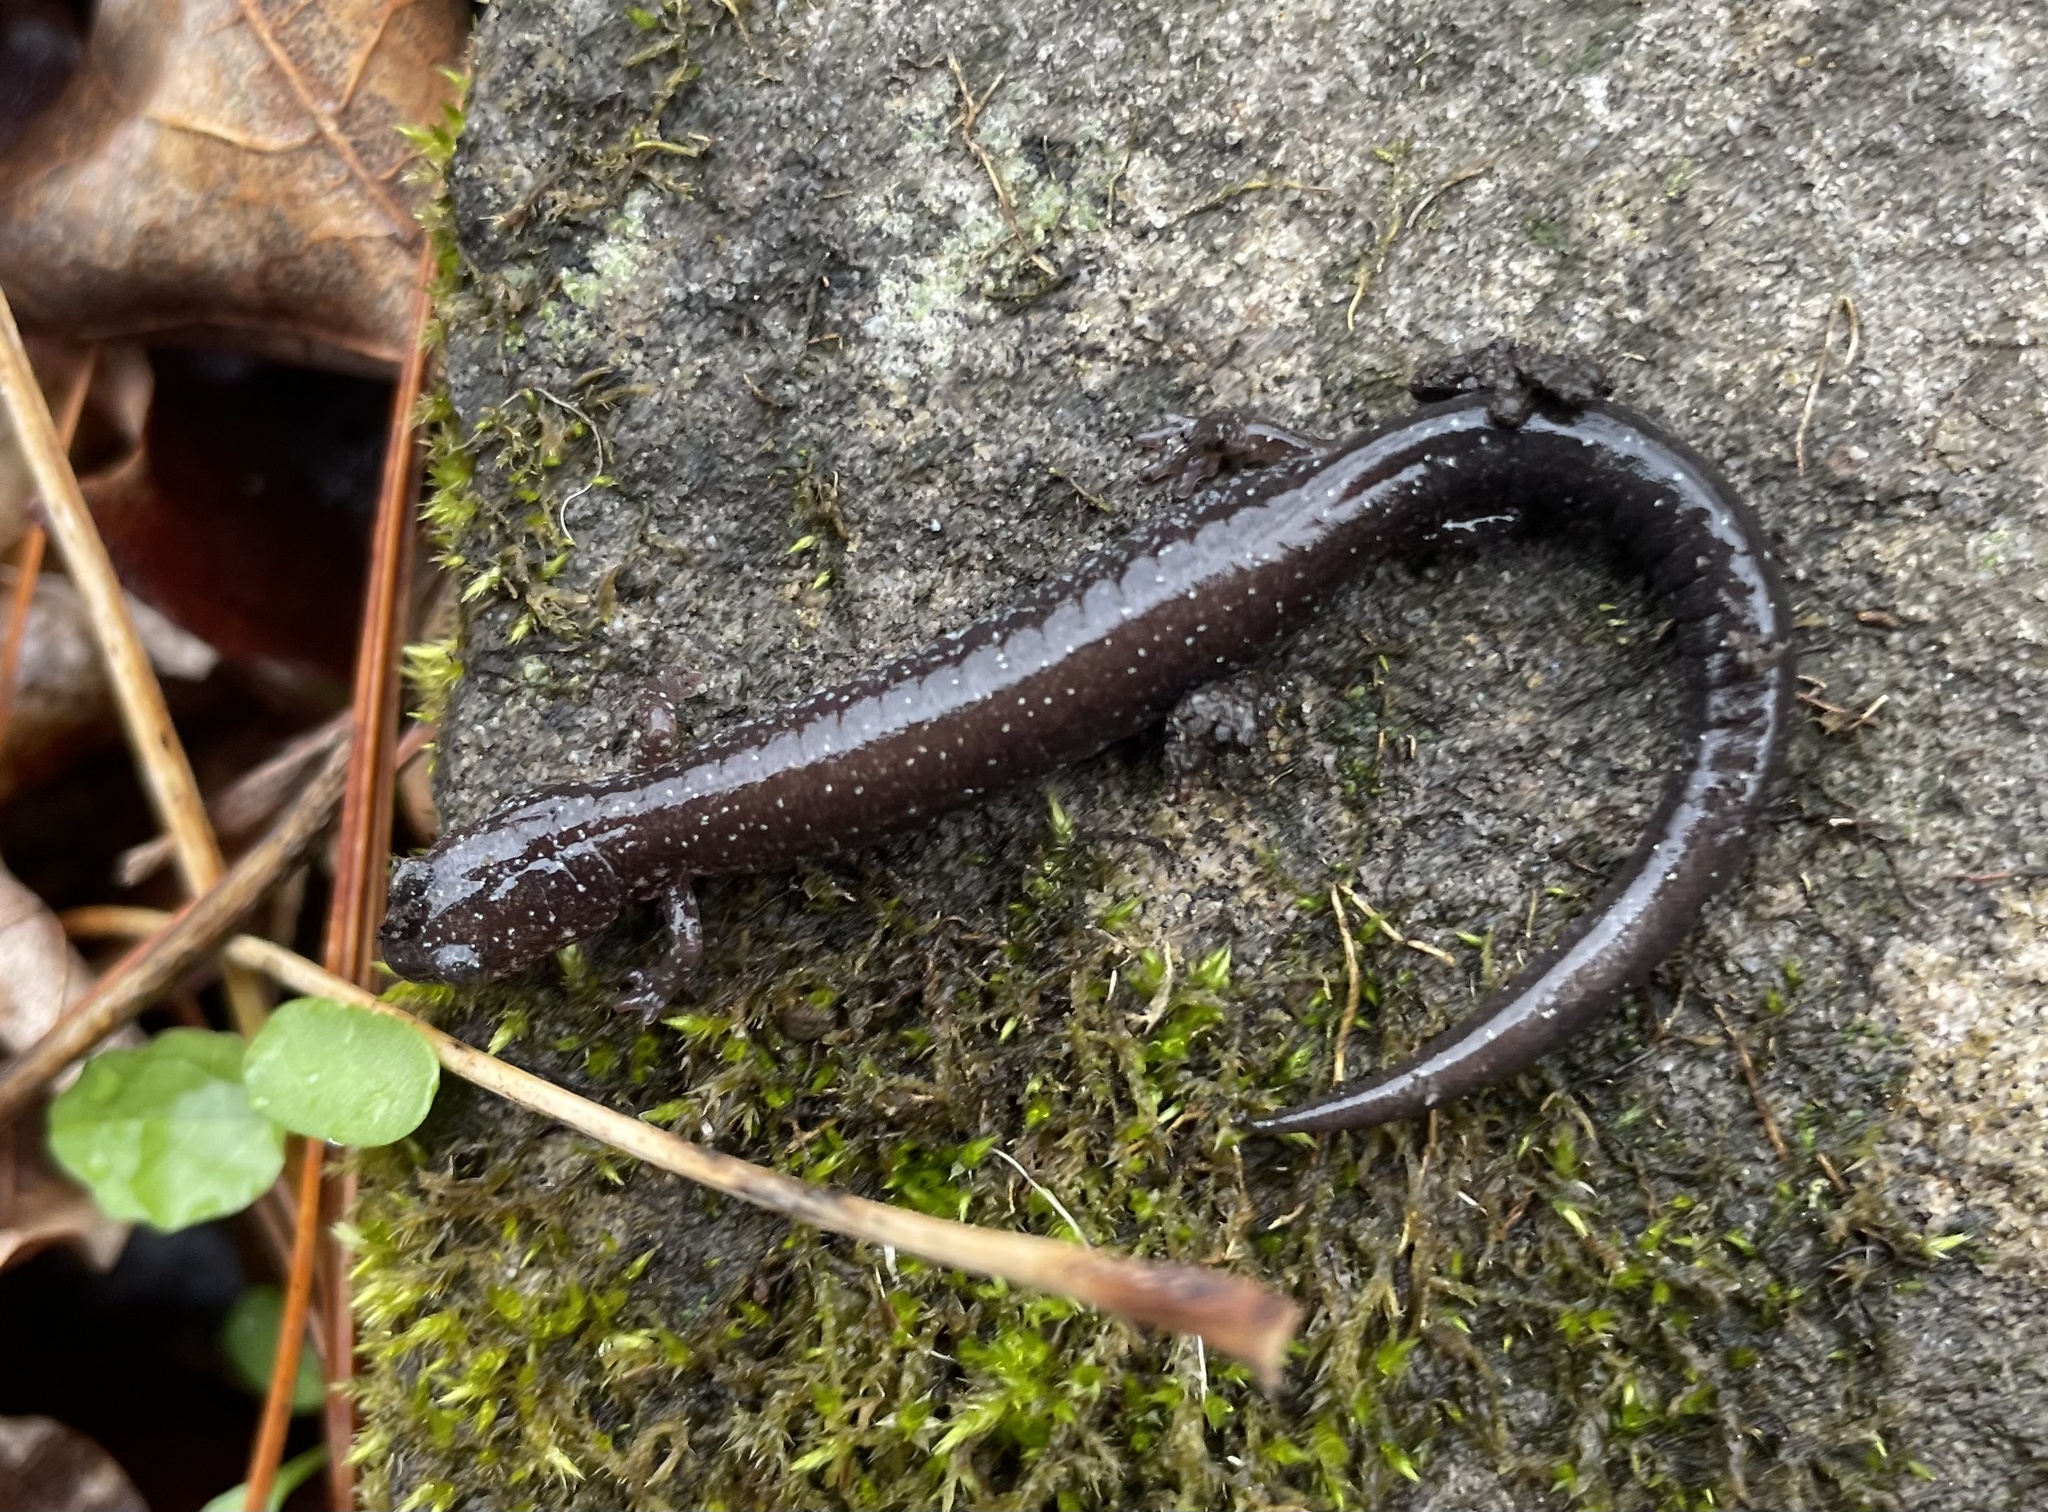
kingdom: Animalia
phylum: Chordata
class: Amphibia
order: Caudata
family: Plethodontidae
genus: Plethodon
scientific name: Plethodon cinereus
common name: Redback salamander
